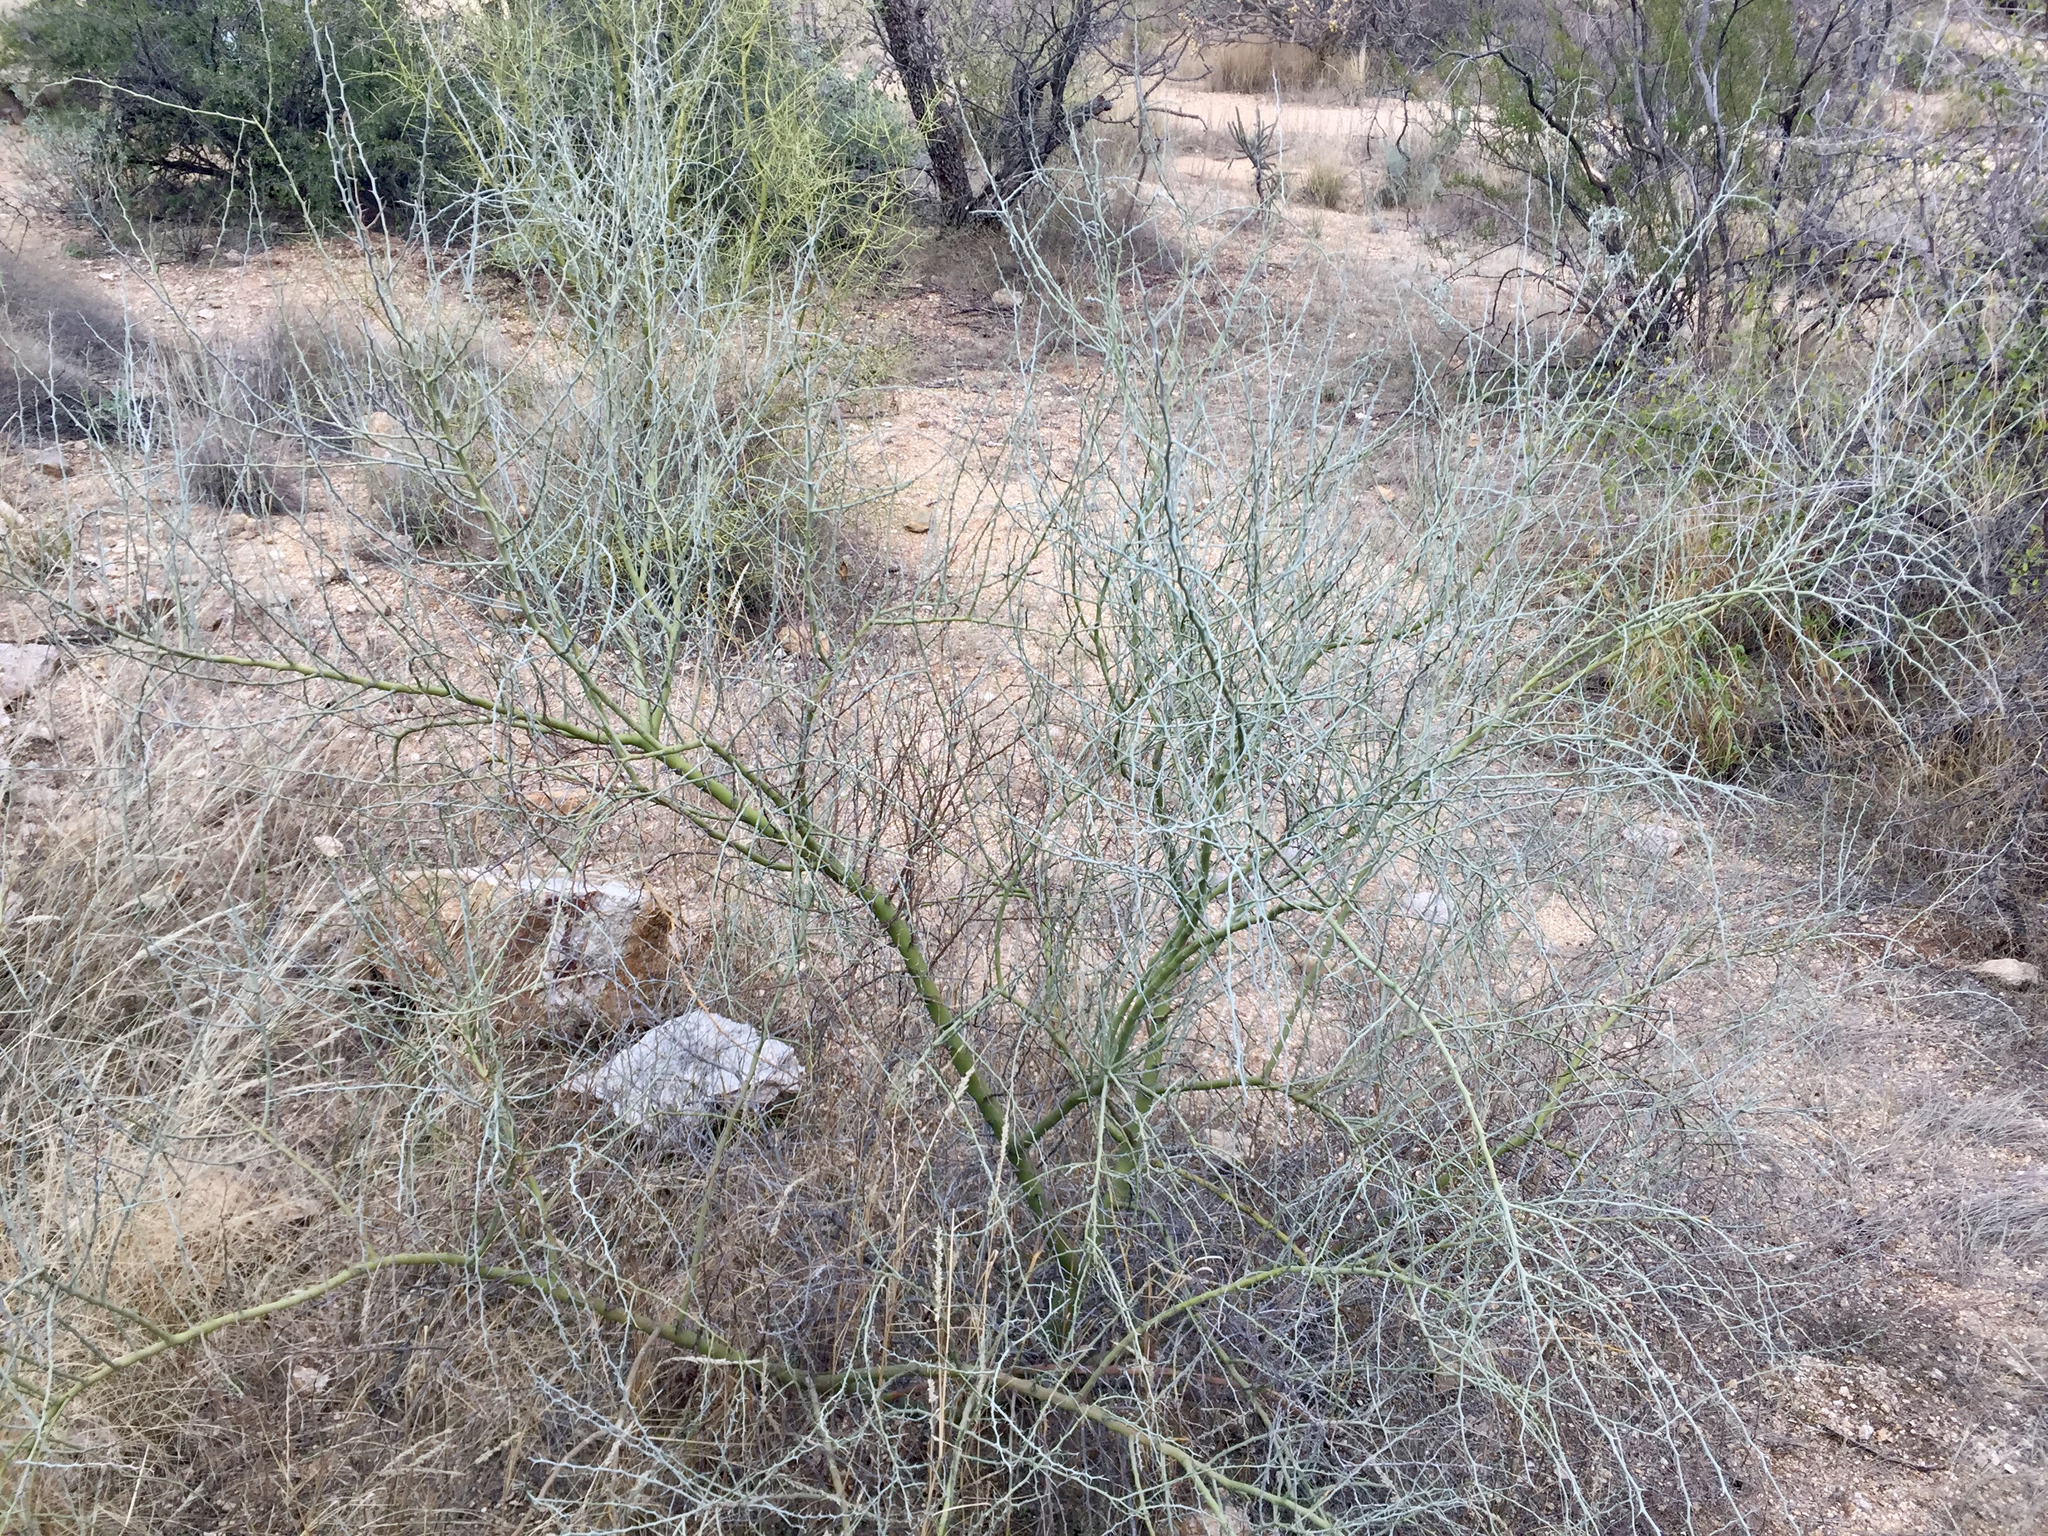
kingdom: Plantae
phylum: Tracheophyta
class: Magnoliopsida
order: Fabales
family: Fabaceae
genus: Parkinsonia
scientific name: Parkinsonia florida
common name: Blue paloverde
